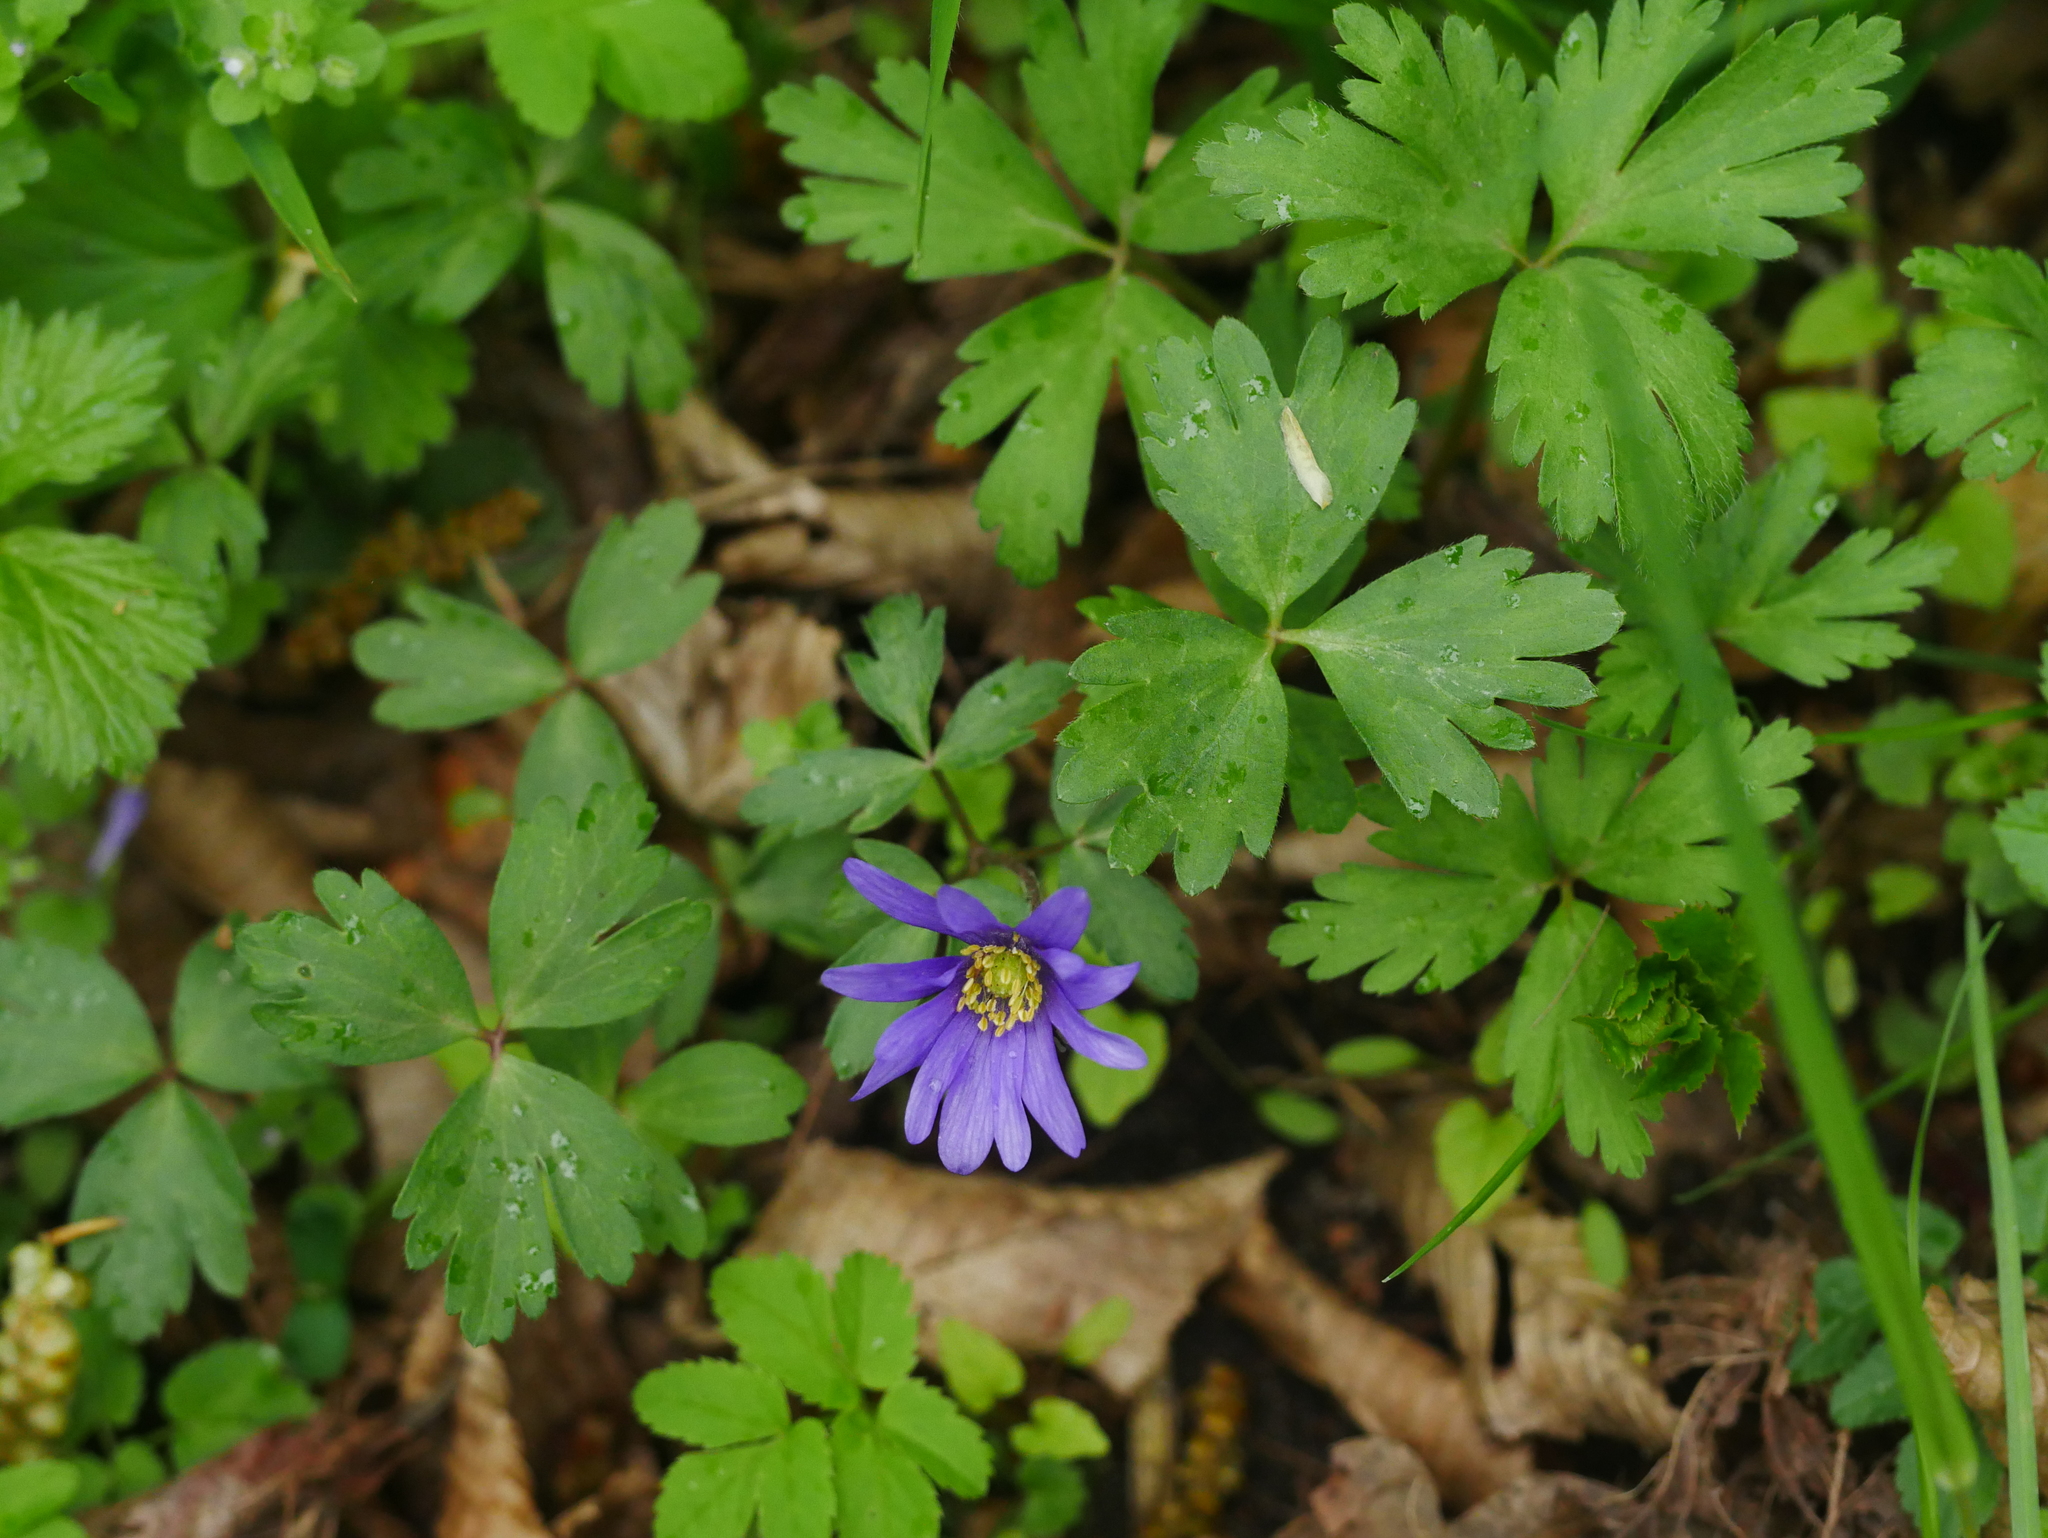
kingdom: Plantae
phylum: Tracheophyta
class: Magnoliopsida
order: Ranunculales
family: Ranunculaceae
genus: Anemone
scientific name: Anemone blanda
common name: Balkan anemone
